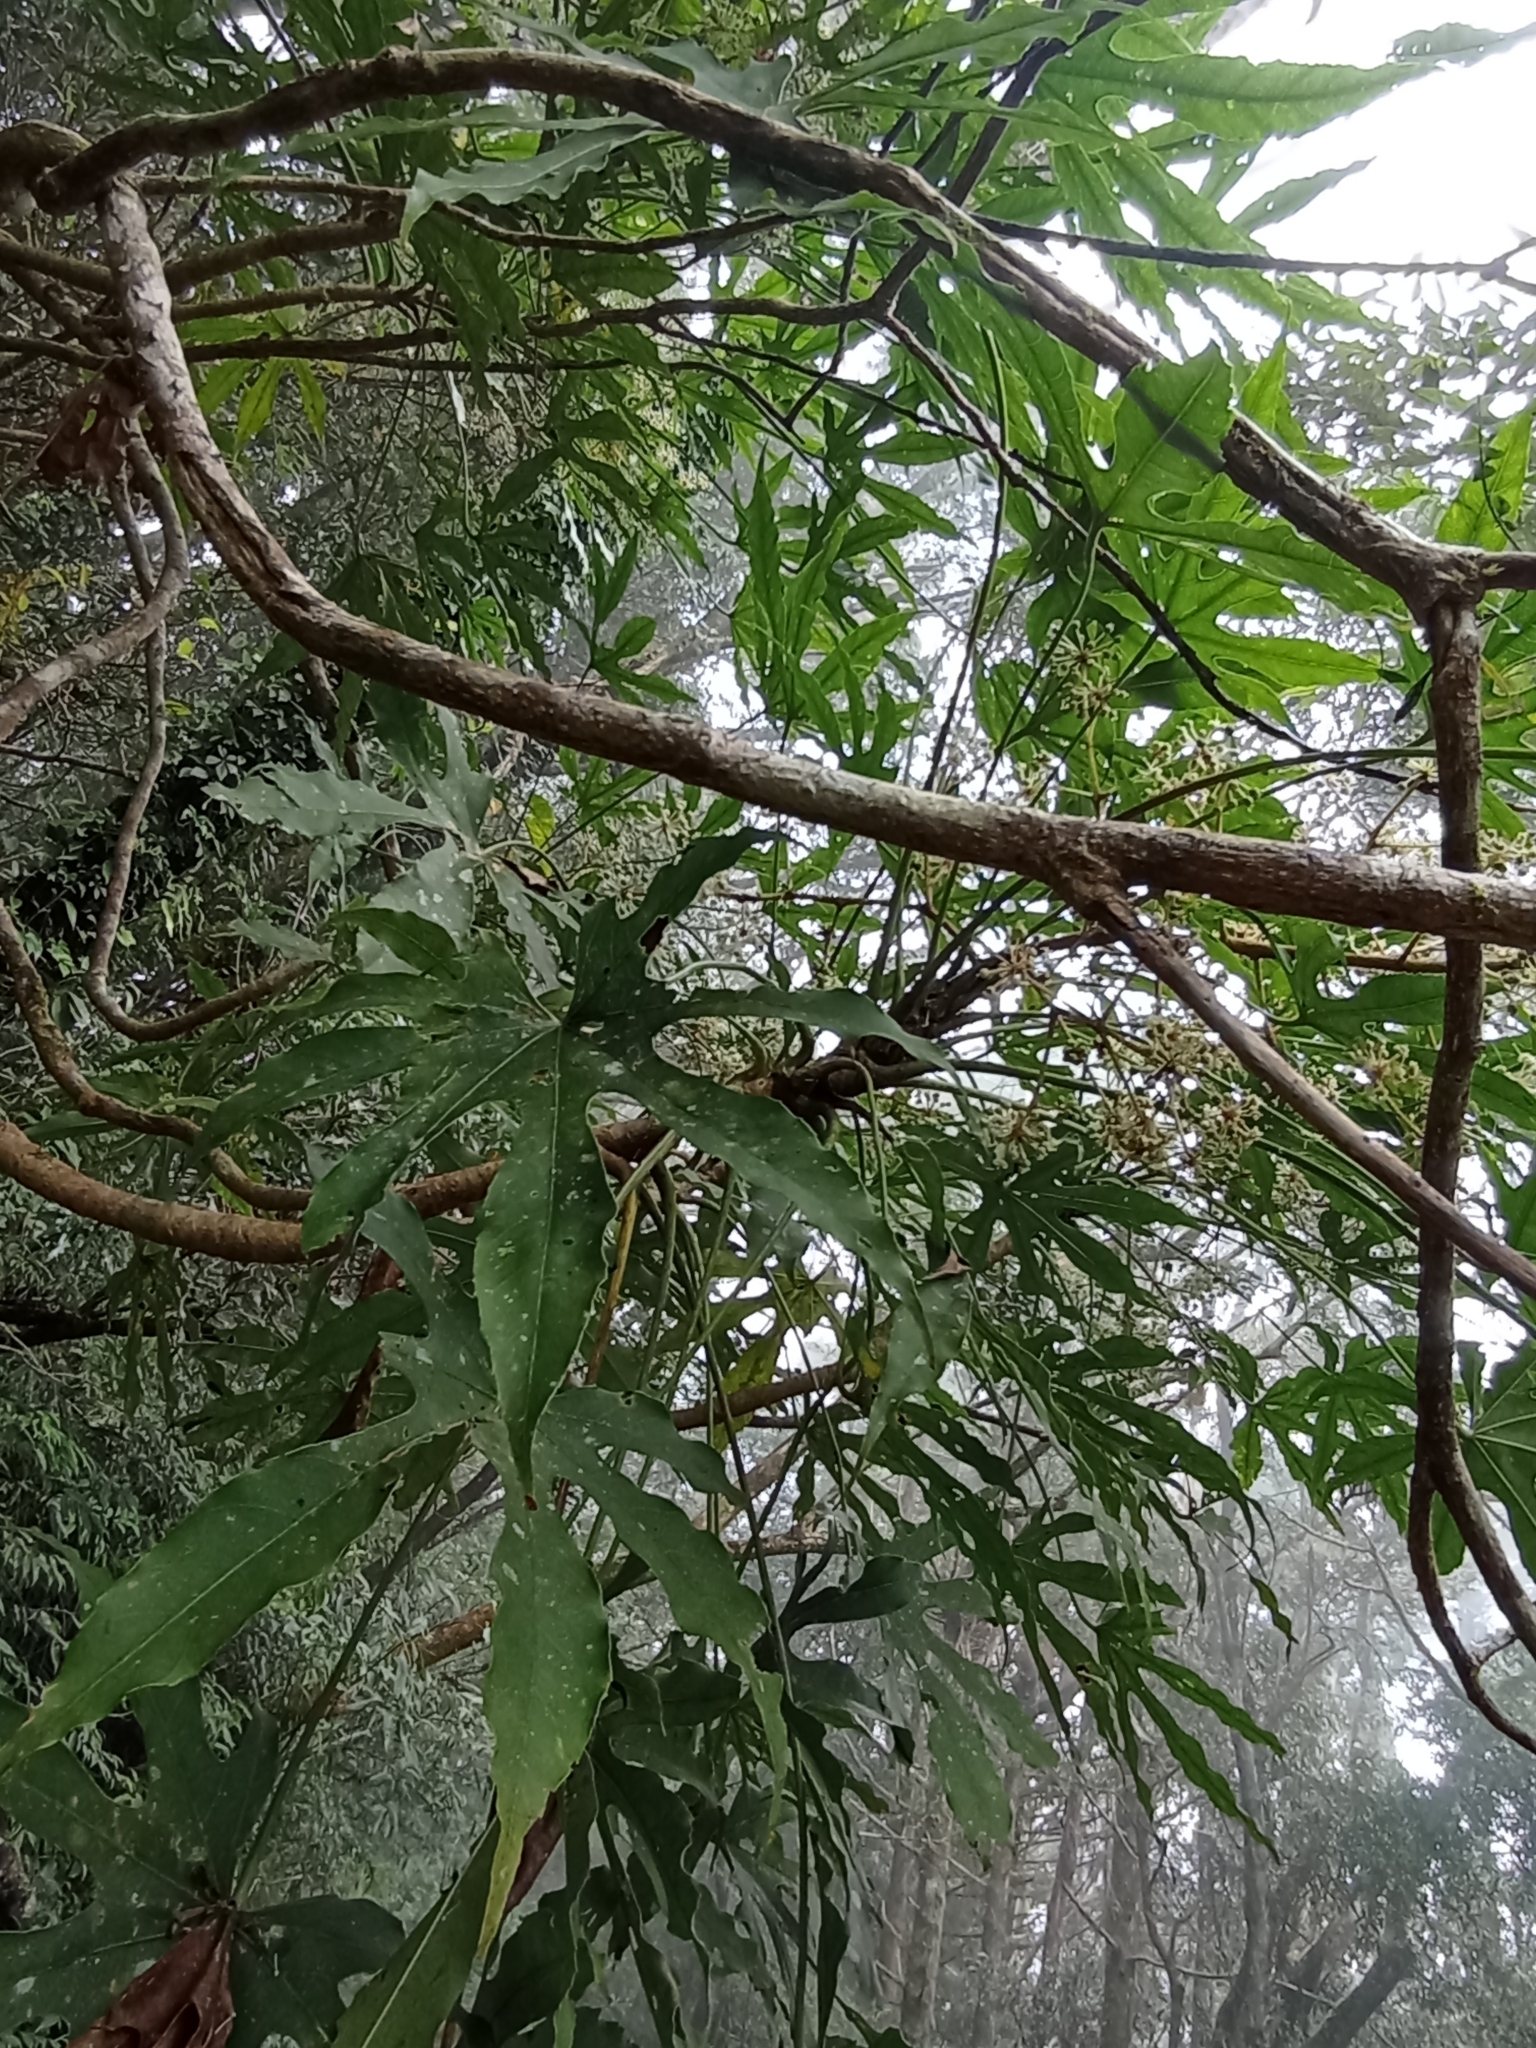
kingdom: Plantae
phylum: Tracheophyta
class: Magnoliopsida
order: Apiales
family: Araliaceae
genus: Fatsia
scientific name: Fatsia polycarpa
